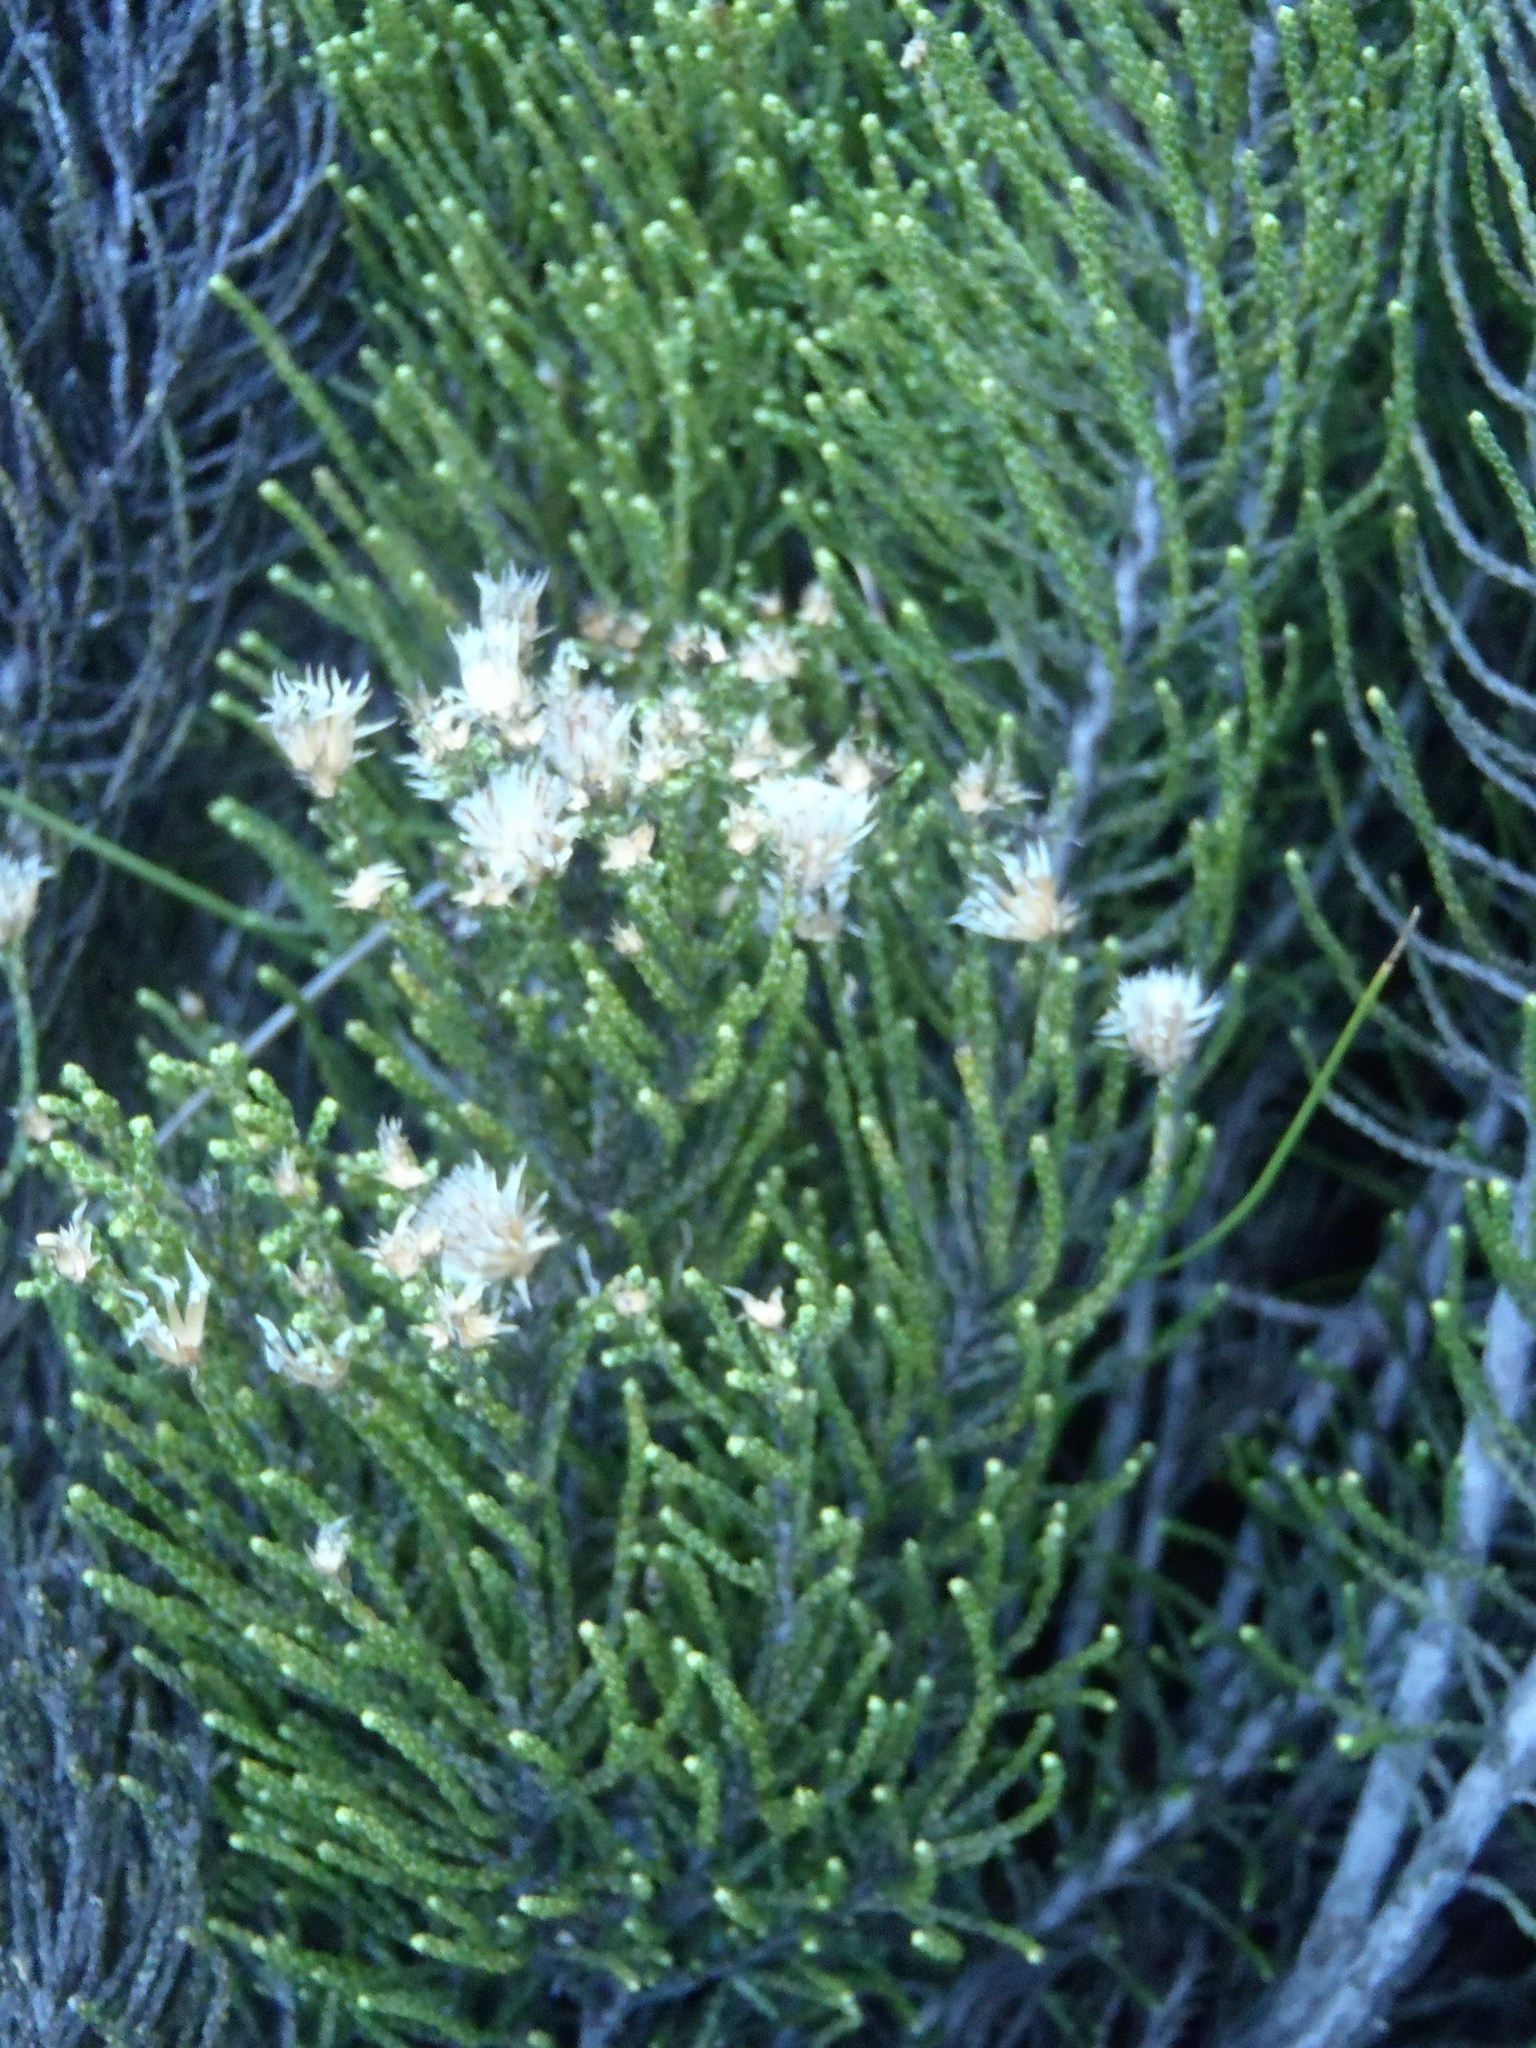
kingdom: Plantae
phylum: Tracheophyta
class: Magnoliopsida
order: Asterales
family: Asteraceae
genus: Dolichothrix
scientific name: Dolichothrix ericoides
